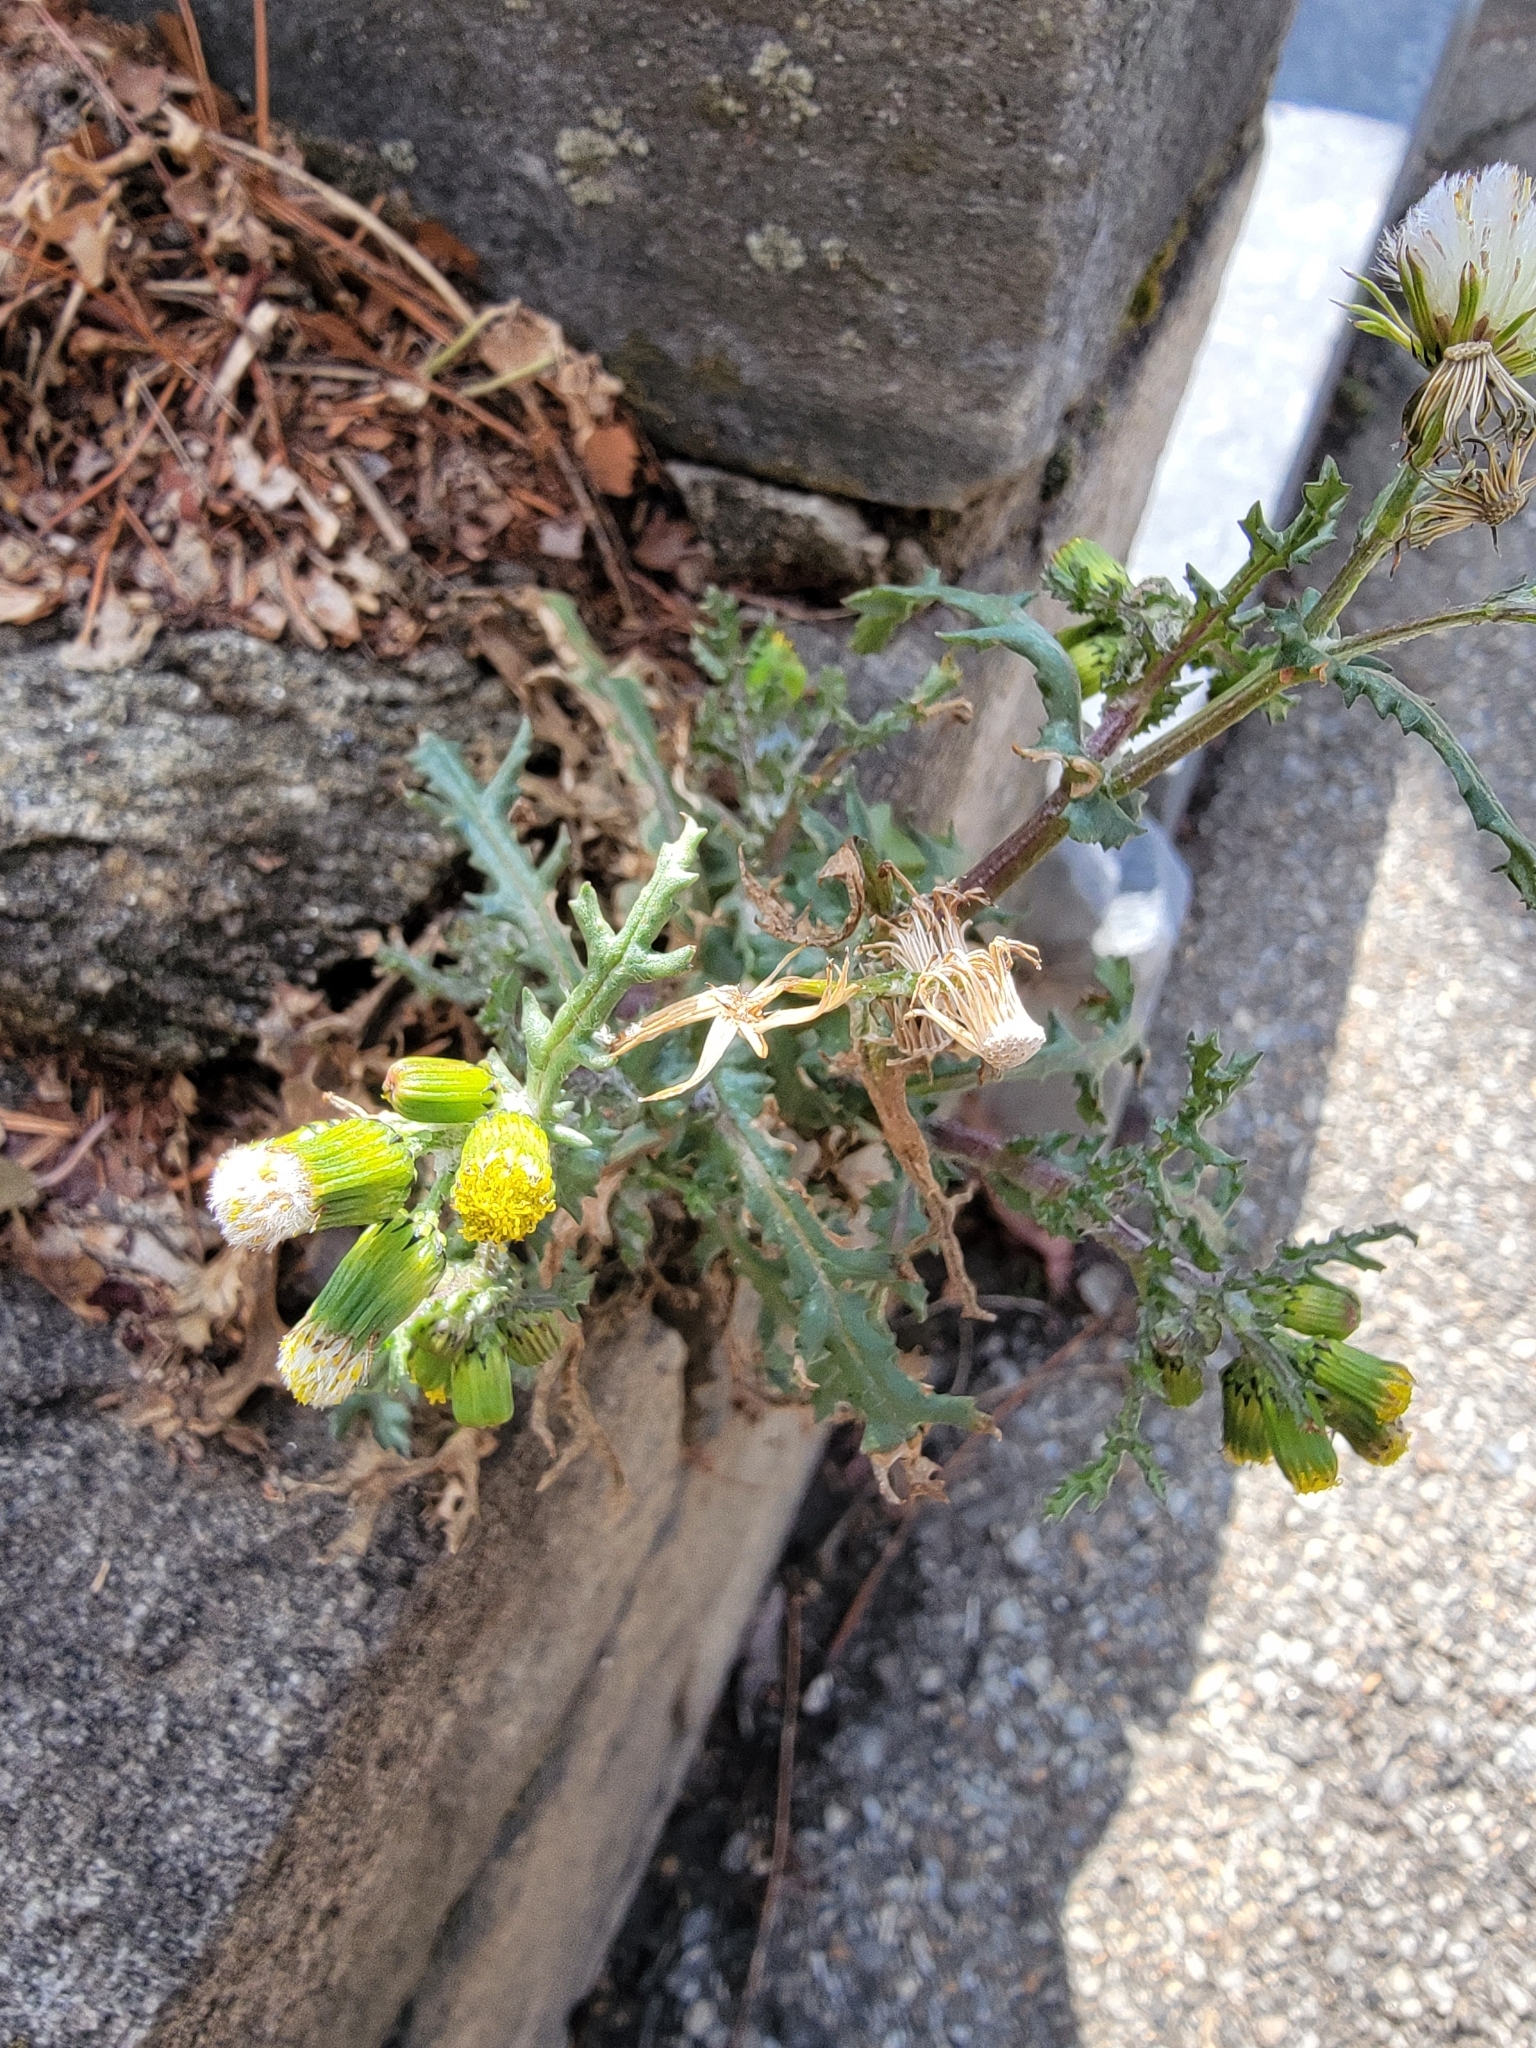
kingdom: Plantae
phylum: Tracheophyta
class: Magnoliopsida
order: Asterales
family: Asteraceae
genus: Senecio
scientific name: Senecio vulgaris
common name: Old-man-in-the-spring
